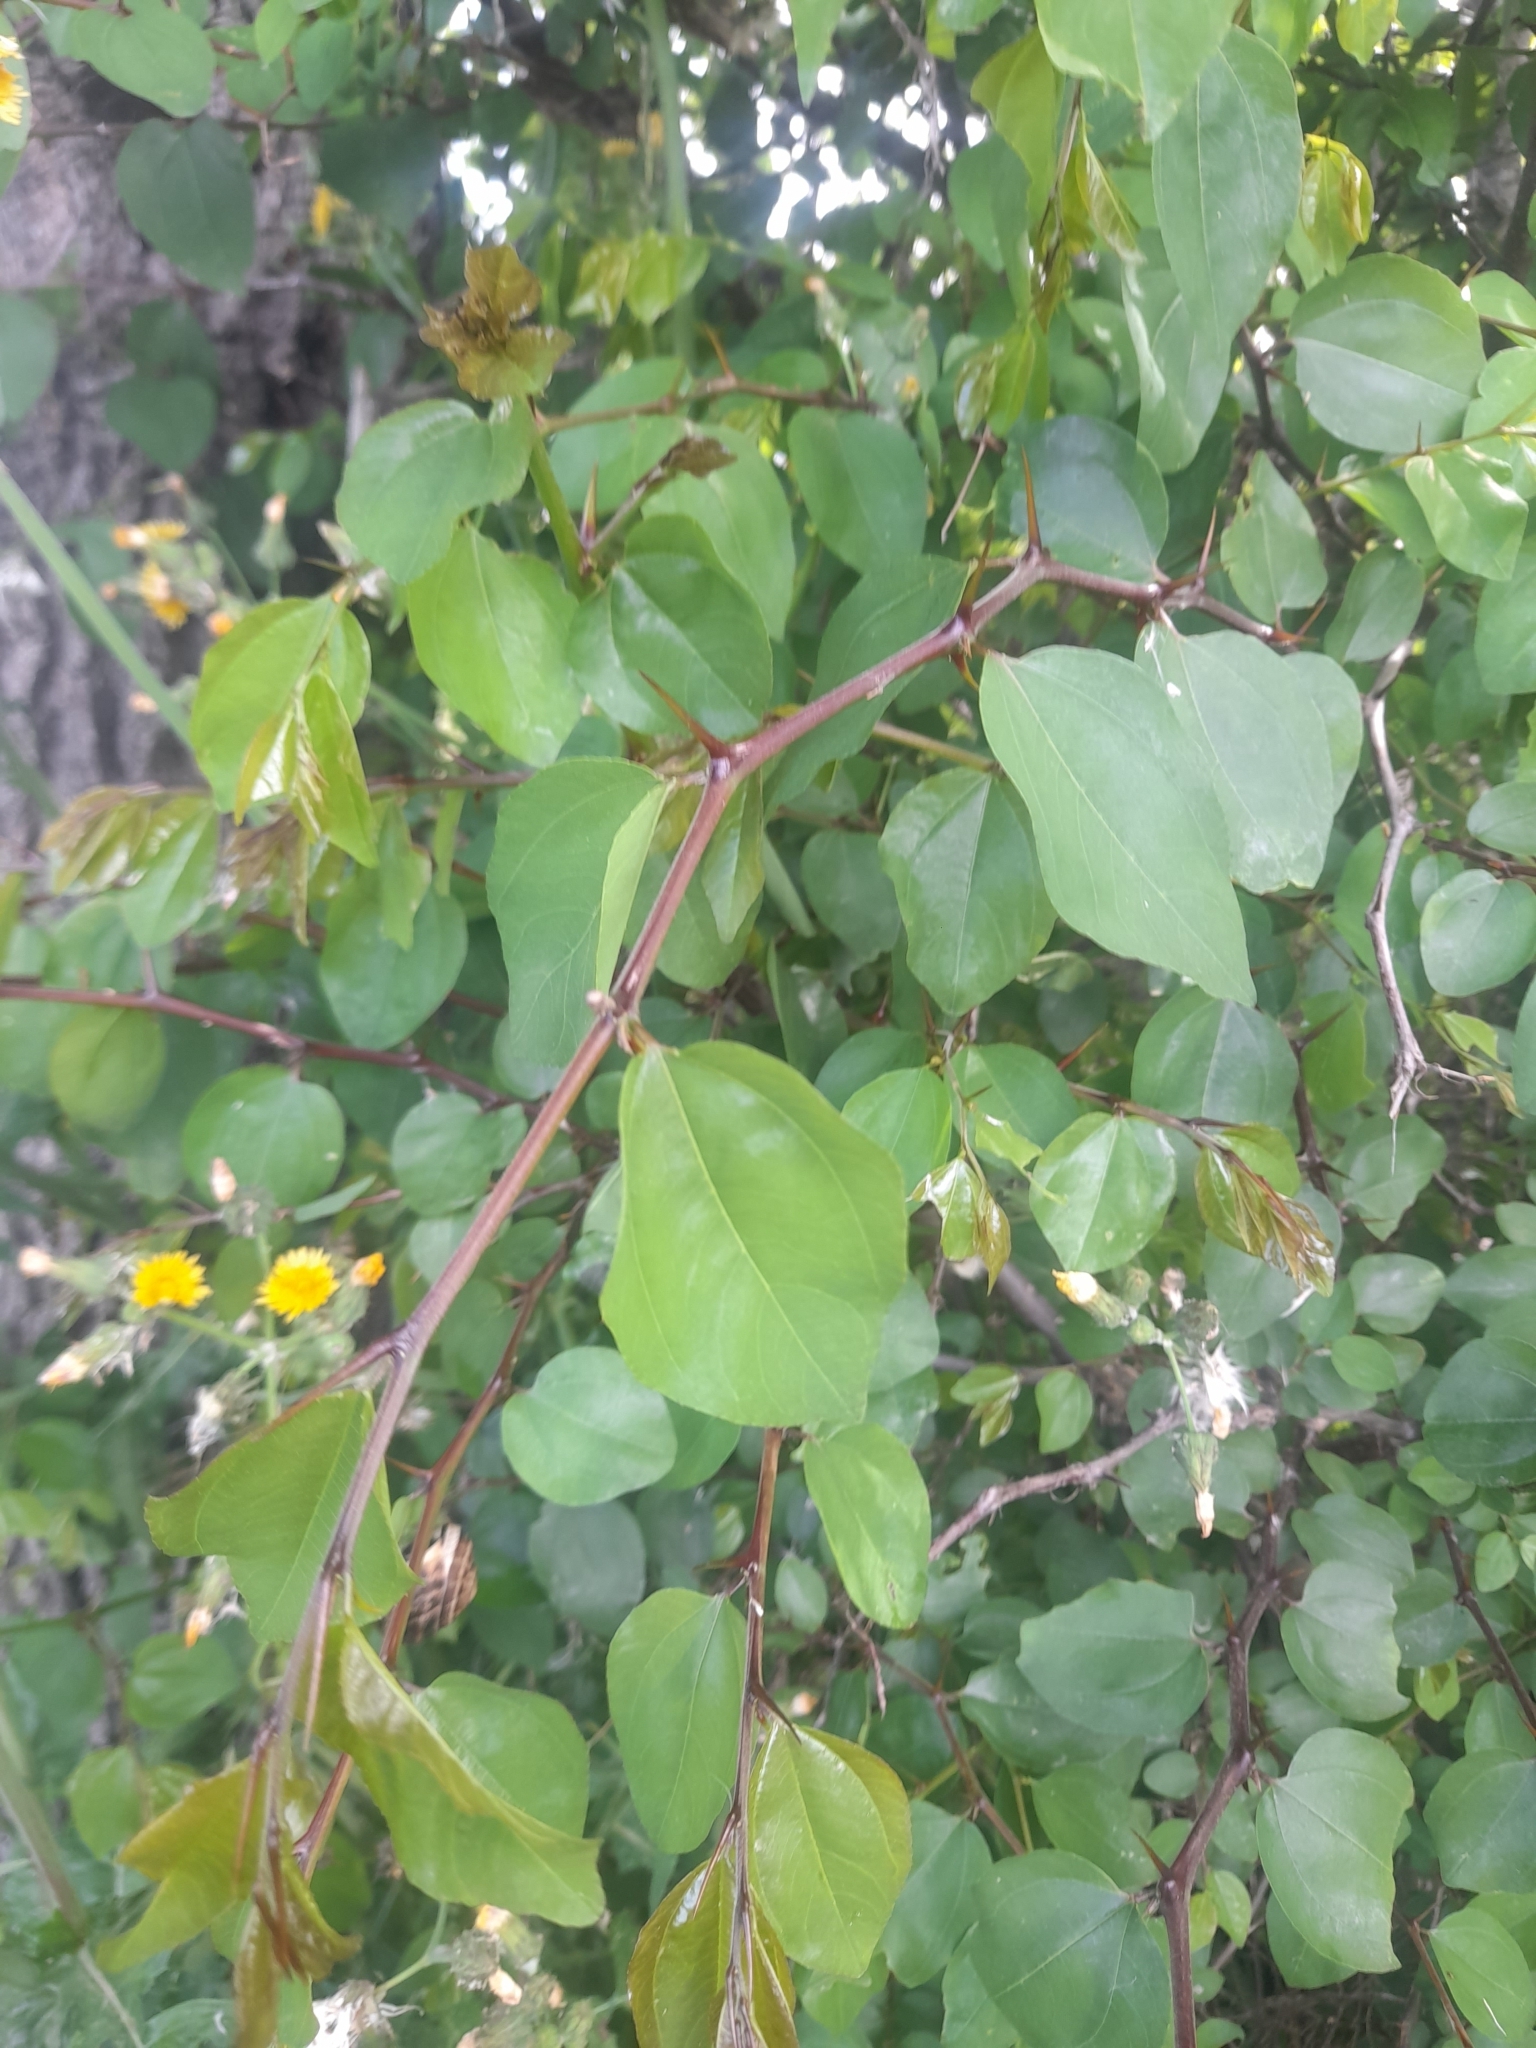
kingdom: Plantae
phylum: Tracheophyta
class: Magnoliopsida
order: Rosales
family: Rhamnaceae
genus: Paliurus
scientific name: Paliurus spina-christi
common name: Jeruselem thorn
